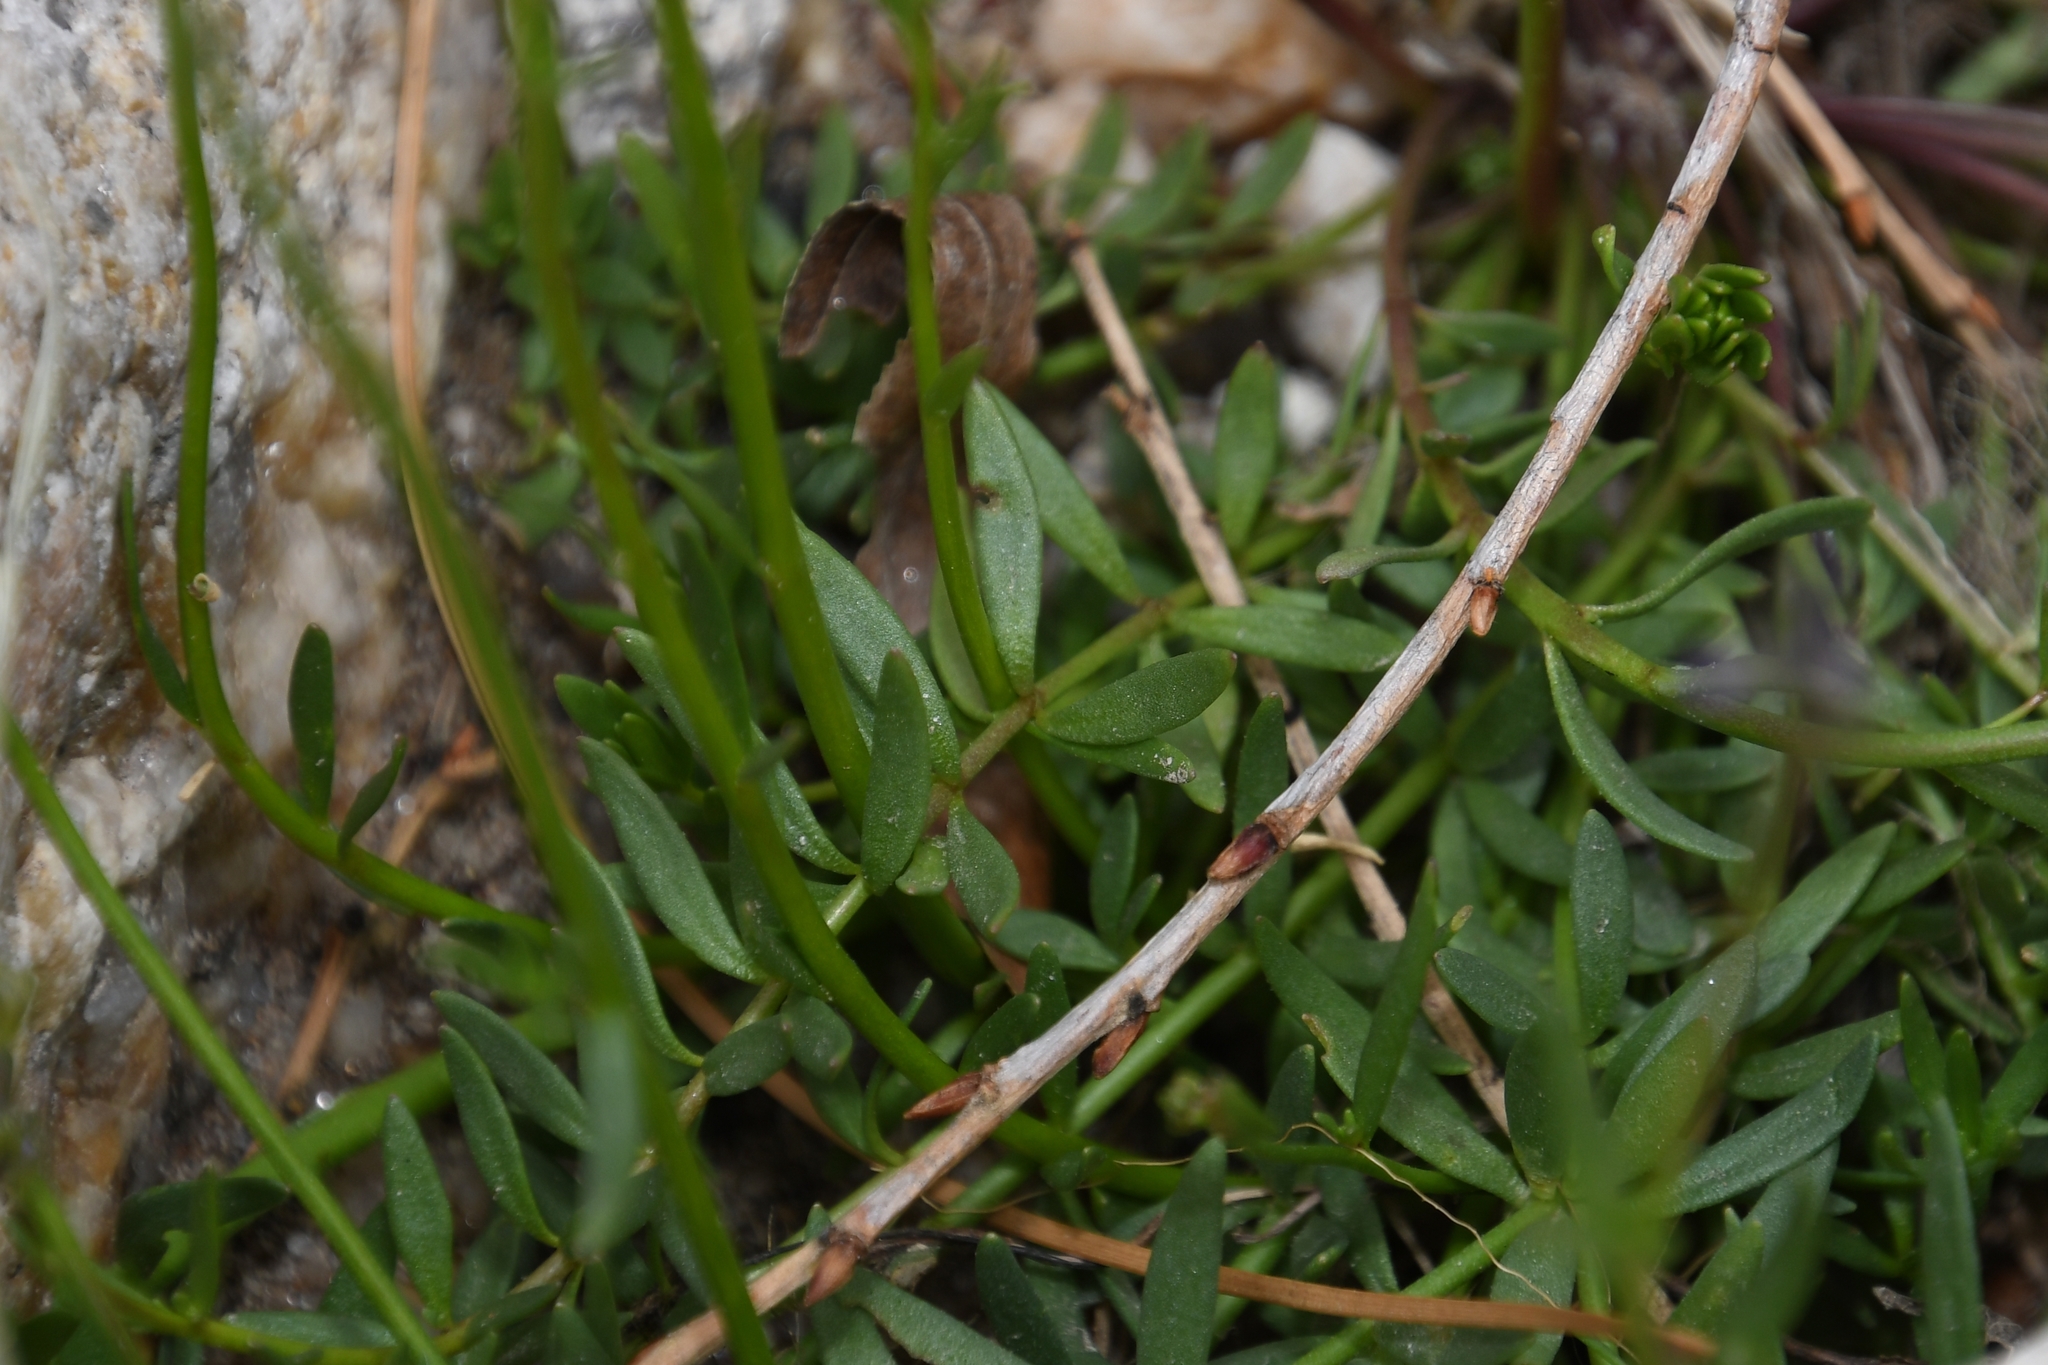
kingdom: Plantae
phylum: Tracheophyta
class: Magnoliopsida
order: Lamiales
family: Plantaginaceae
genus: Nuttallanthus
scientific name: Nuttallanthus texanus
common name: Texas toadflax
